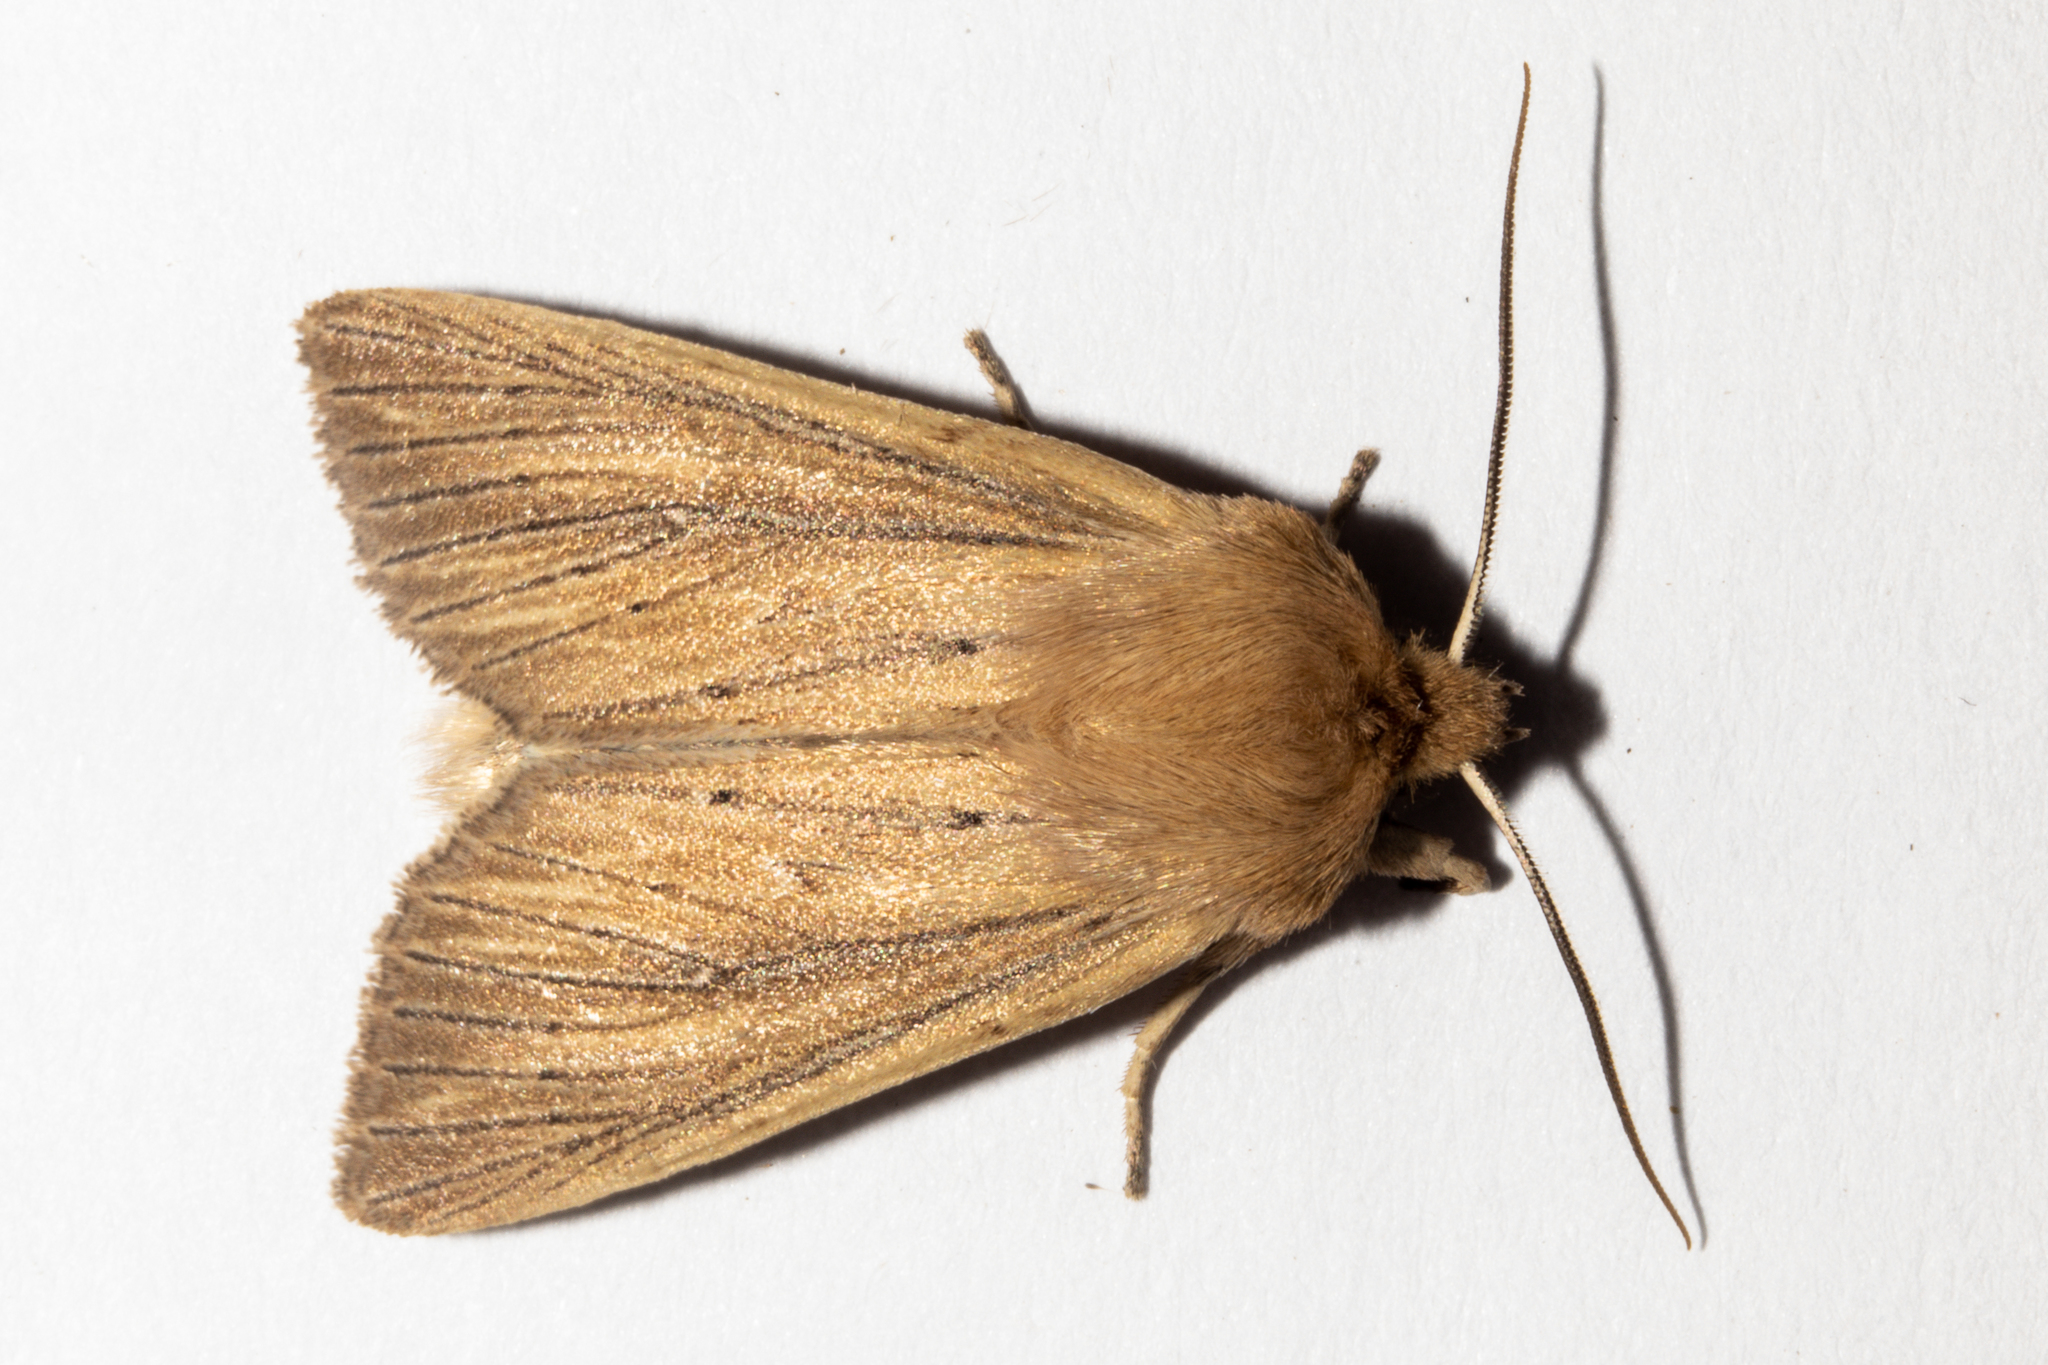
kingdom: Animalia
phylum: Arthropoda
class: Insecta
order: Lepidoptera
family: Noctuidae
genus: Ichneutica
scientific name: Ichneutica arotis
